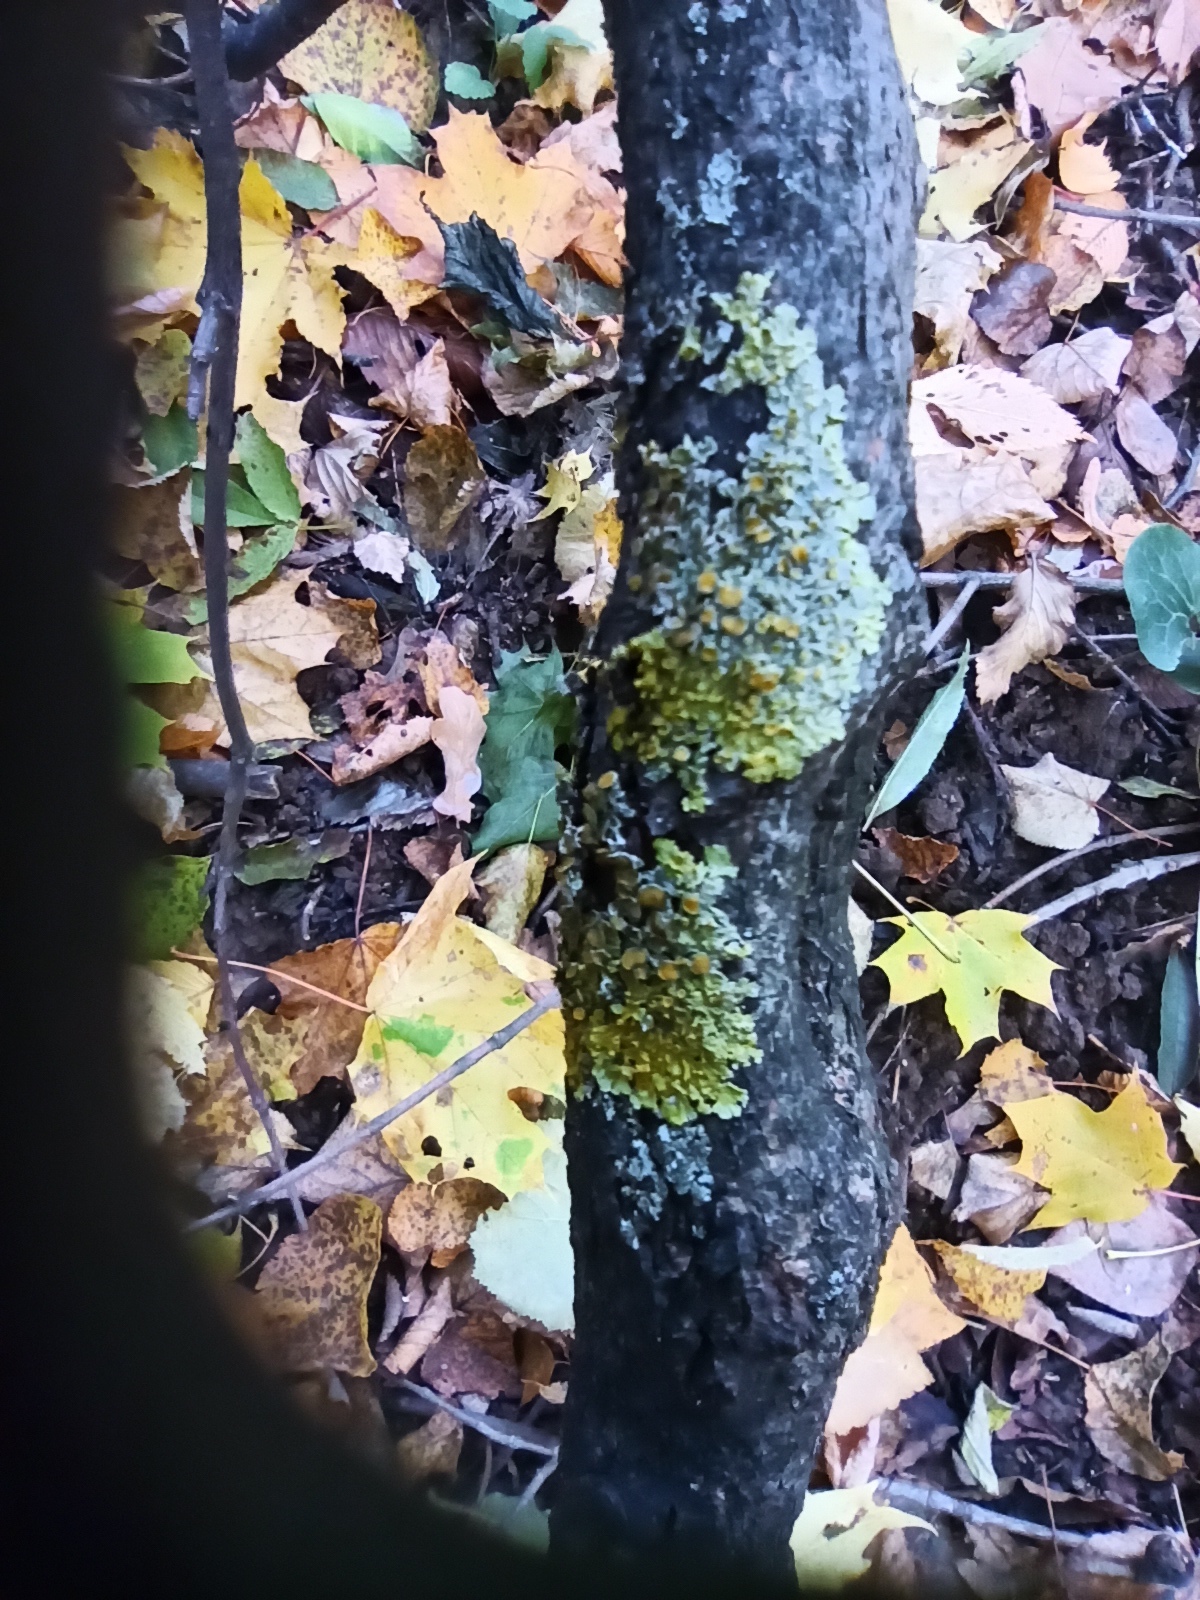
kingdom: Fungi
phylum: Ascomycota
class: Lecanoromycetes
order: Teloschistales
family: Teloschistaceae
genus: Xanthoria
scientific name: Xanthoria parietina
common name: Common orange lichen
